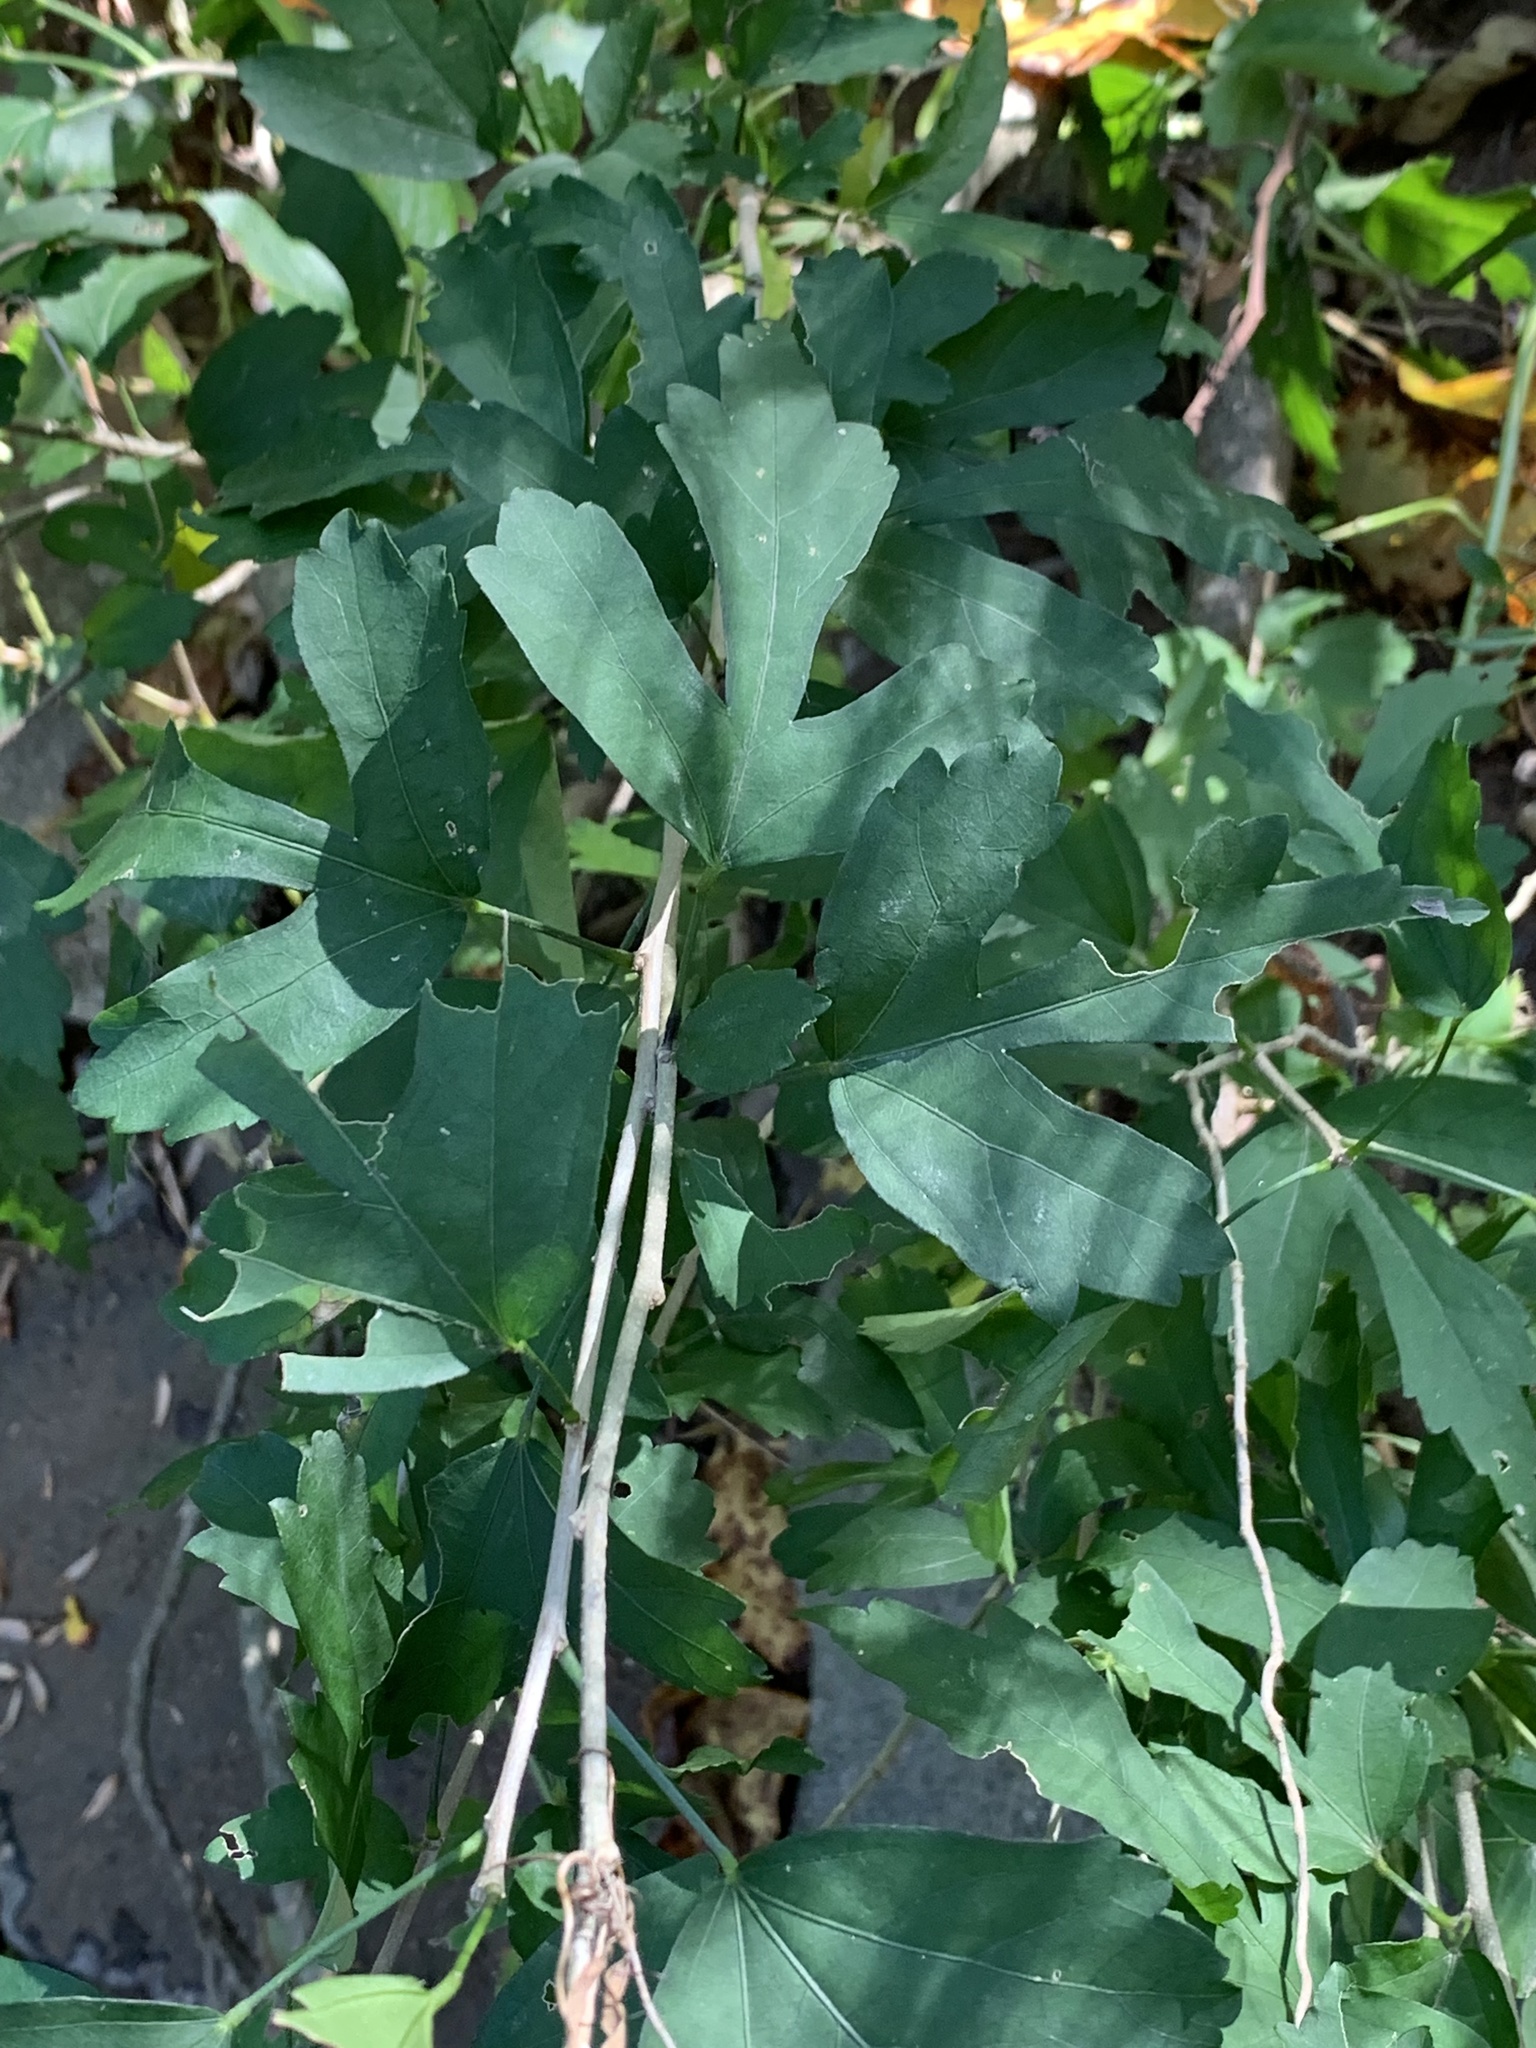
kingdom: Plantae
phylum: Tracheophyta
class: Magnoliopsida
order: Malvales
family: Malvaceae
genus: Hibiscus
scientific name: Hibiscus syriacus
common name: Syrian ketmia
